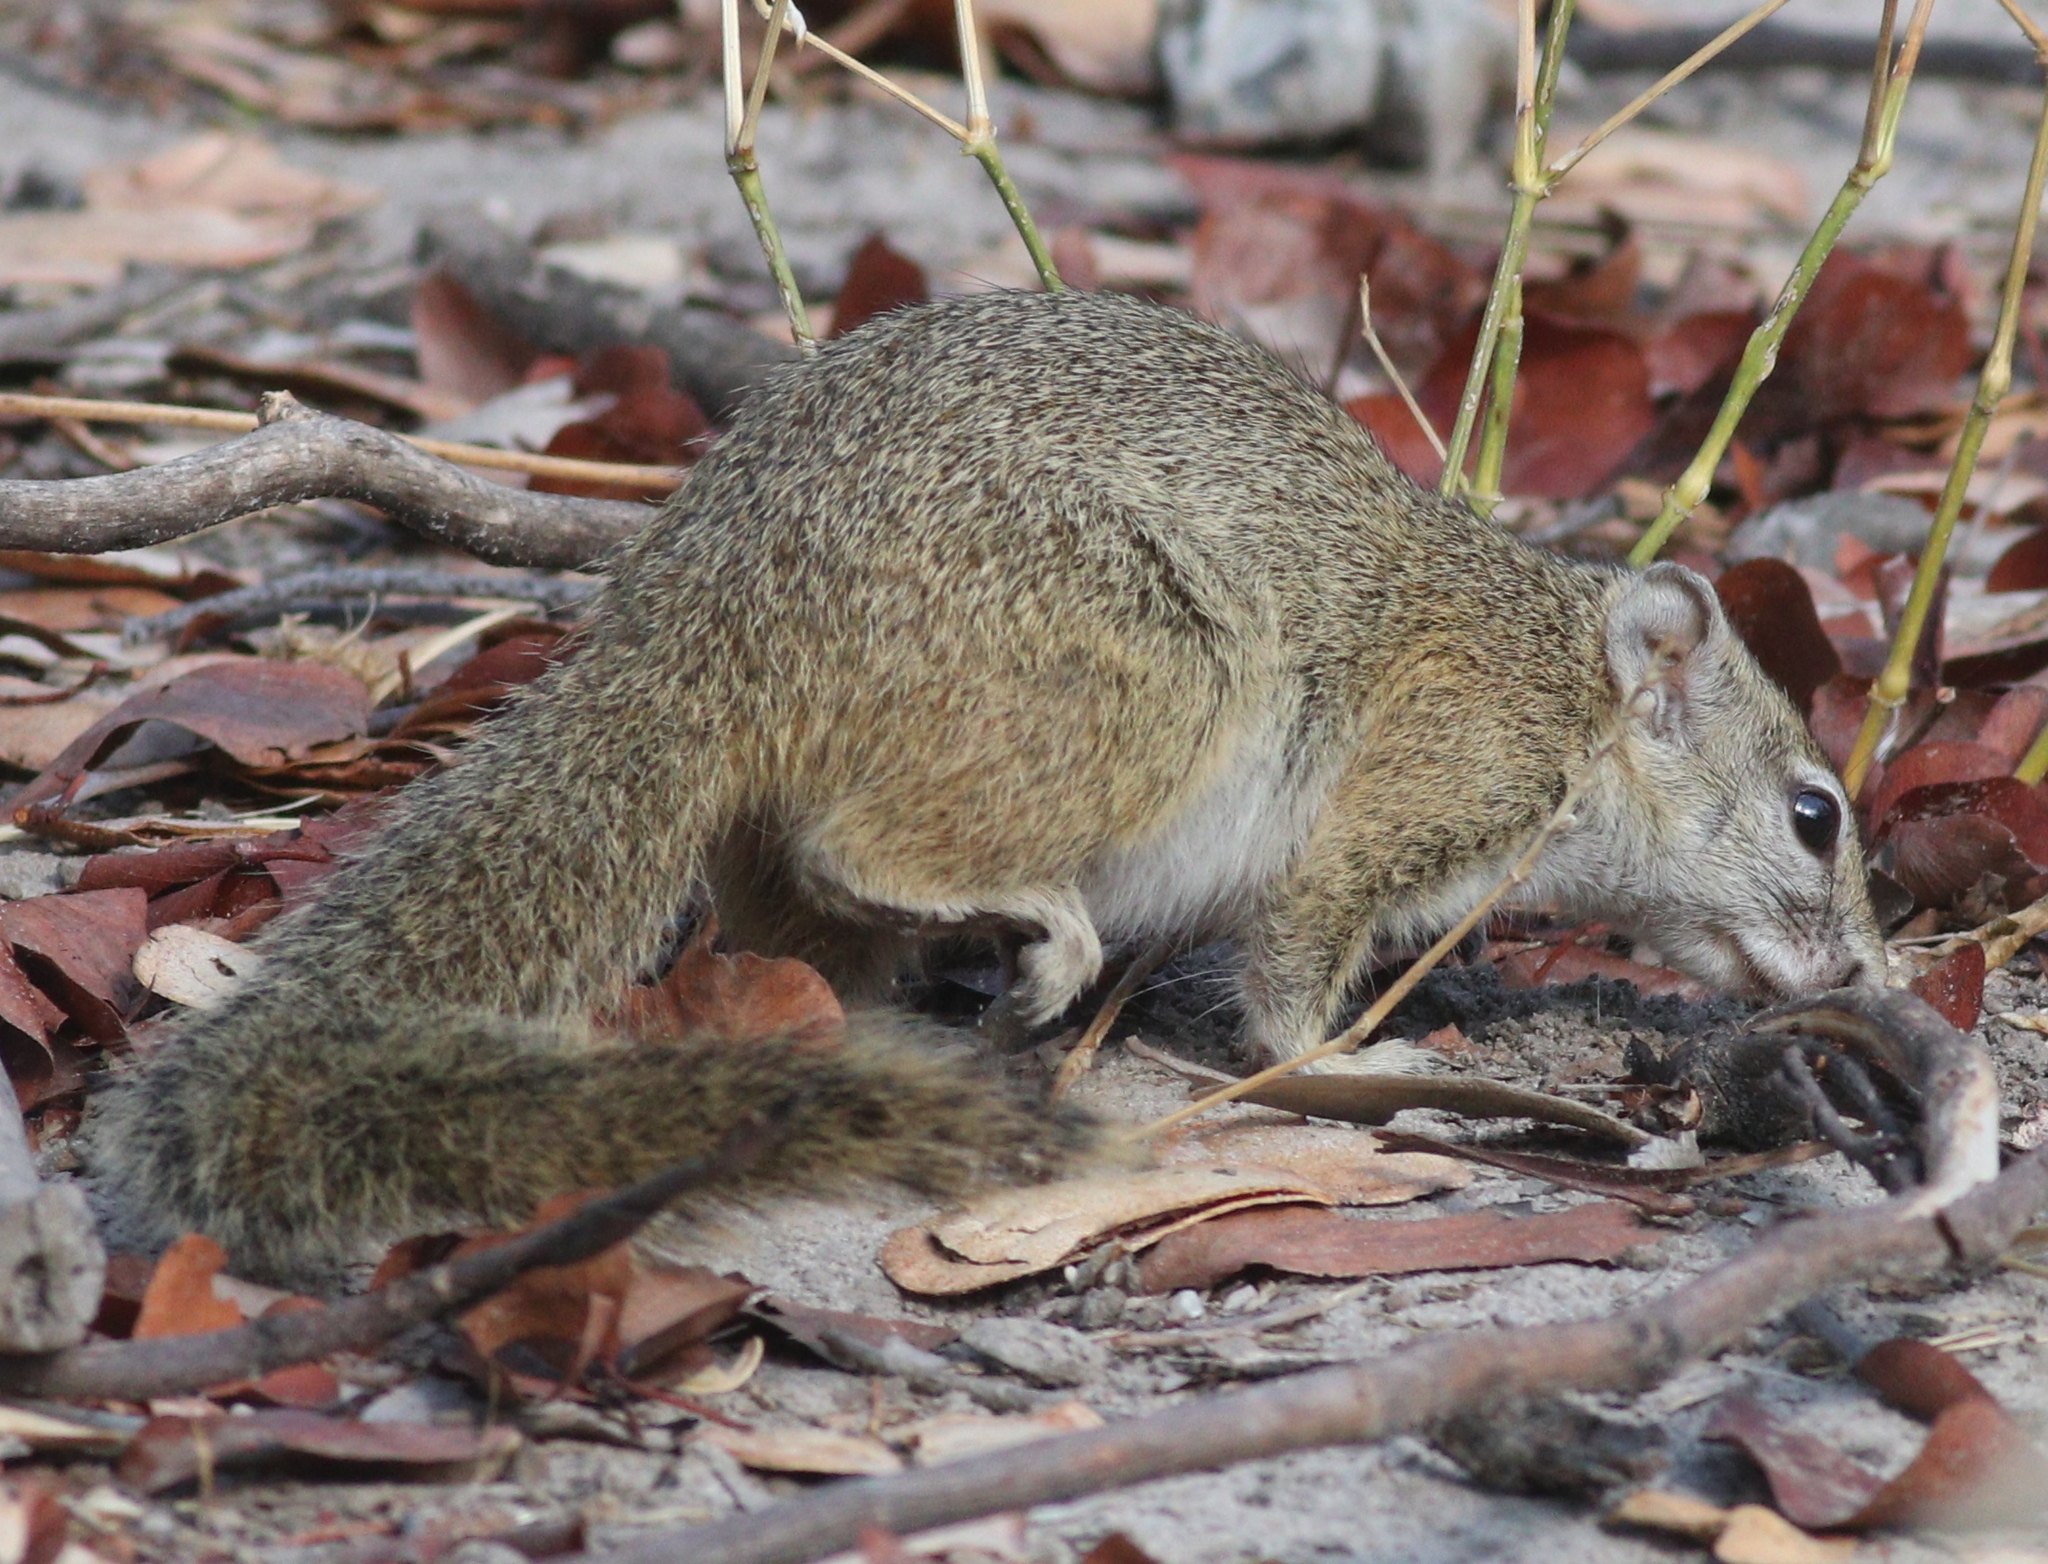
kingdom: Animalia
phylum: Chordata
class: Mammalia
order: Rodentia
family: Sciuridae
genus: Paraxerus
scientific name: Paraxerus cepapi
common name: Smith's bush squirrel
